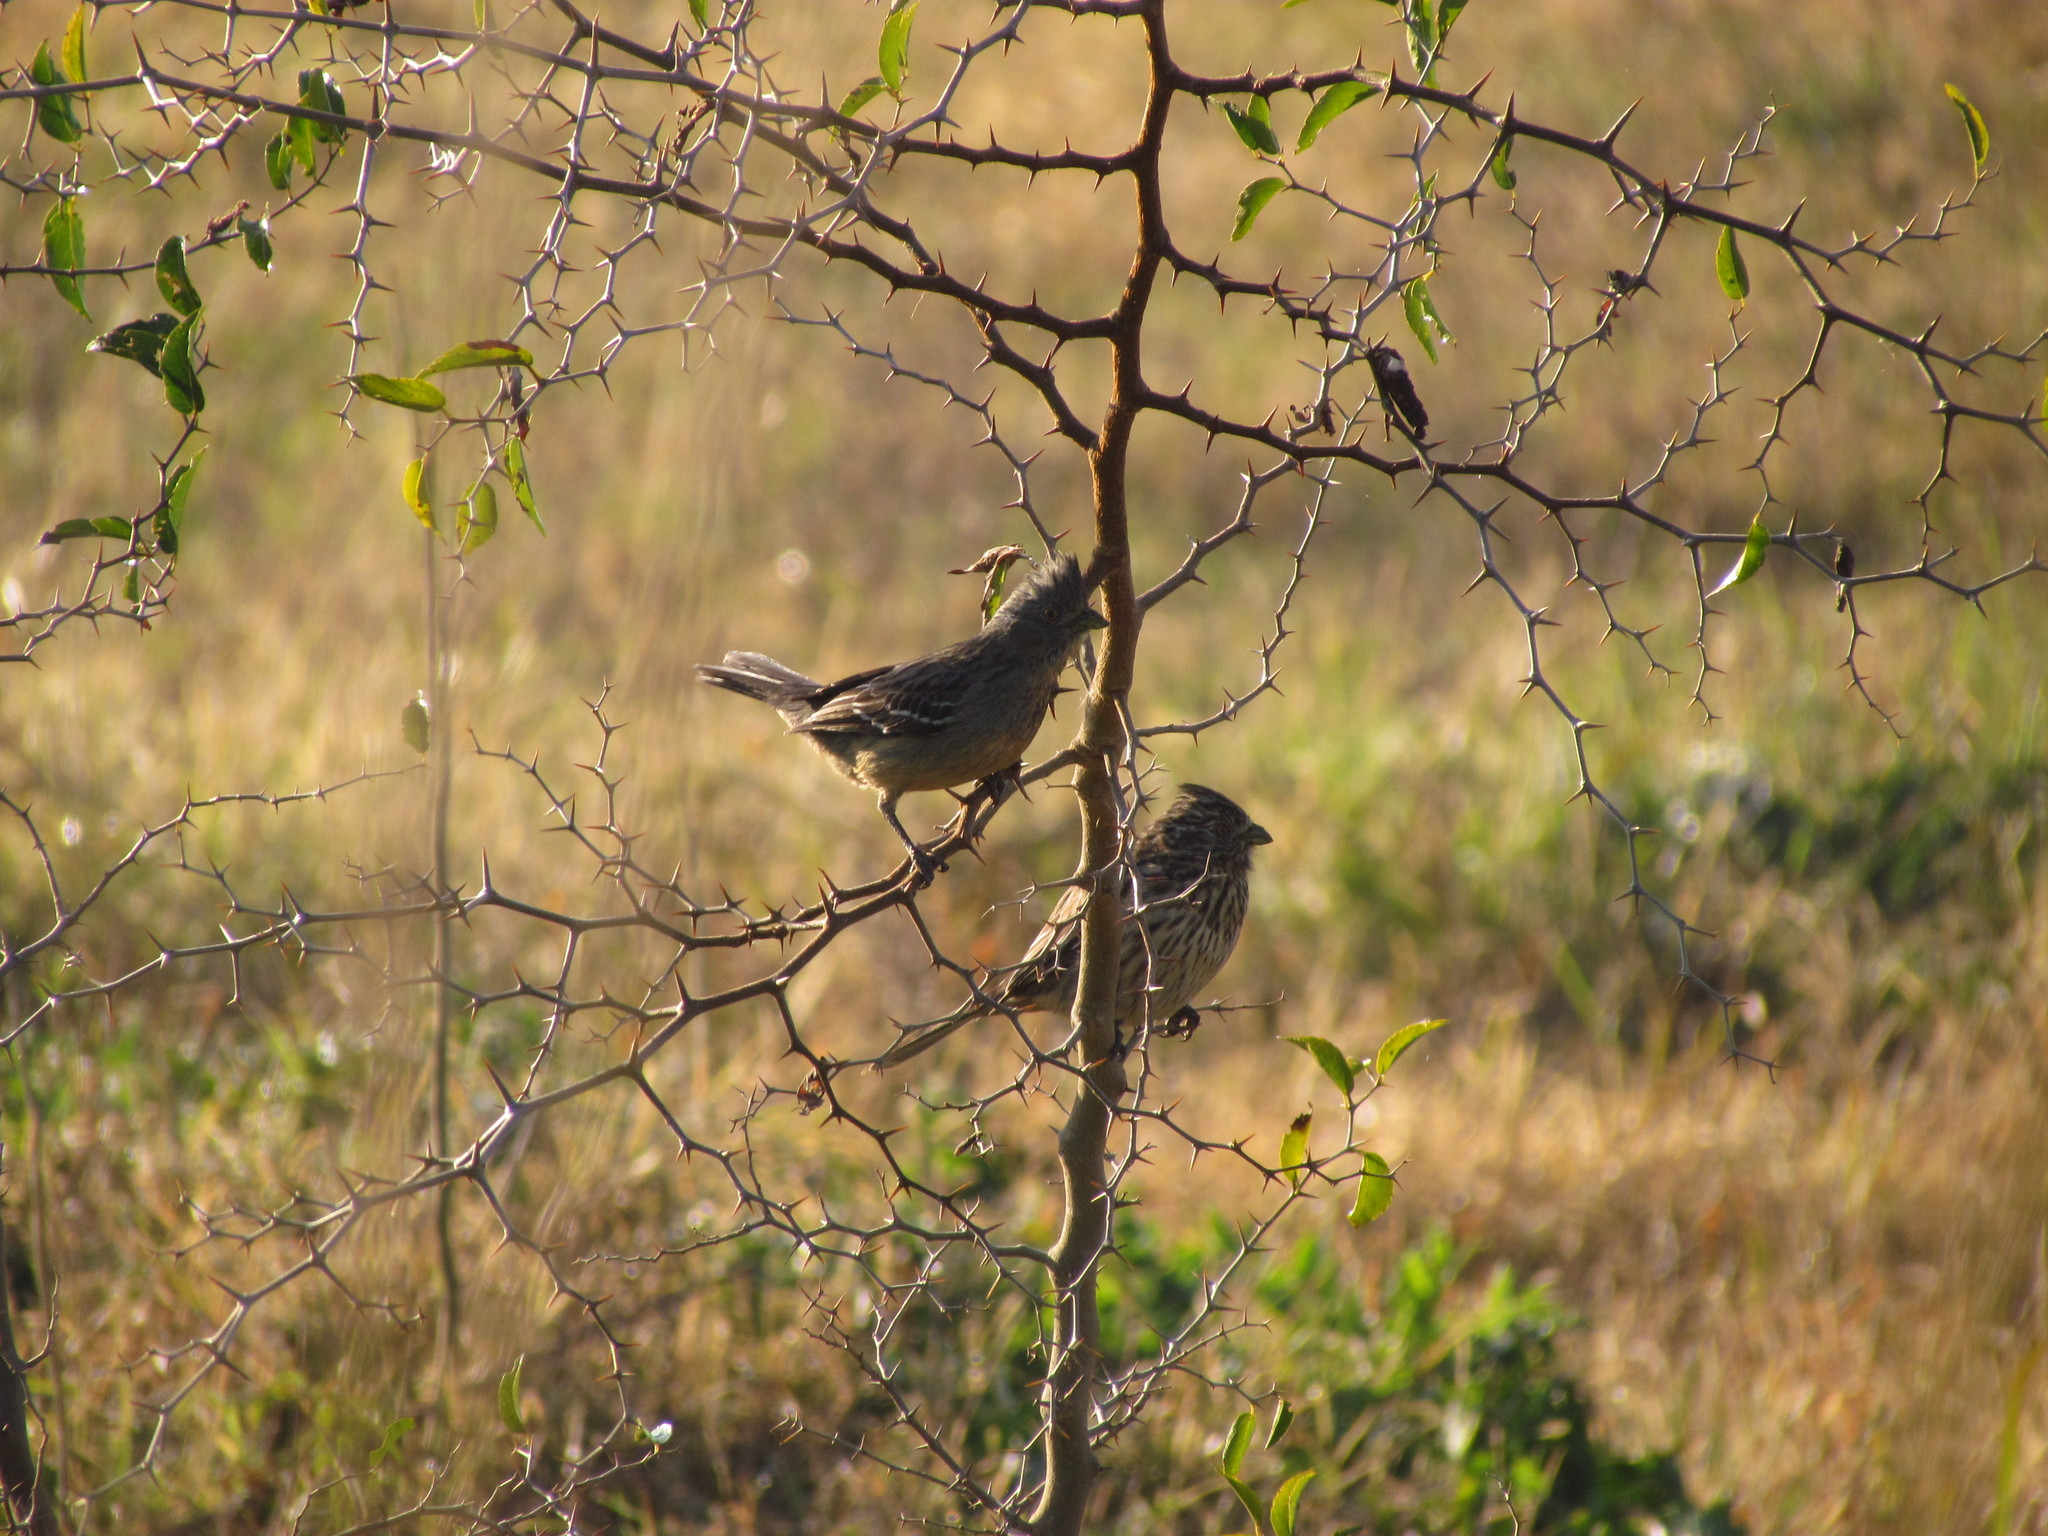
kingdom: Animalia
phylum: Chordata
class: Aves
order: Passeriformes
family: Cotingidae
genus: Phytotoma
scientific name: Phytotoma rutila
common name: White-tipped plantcutter
